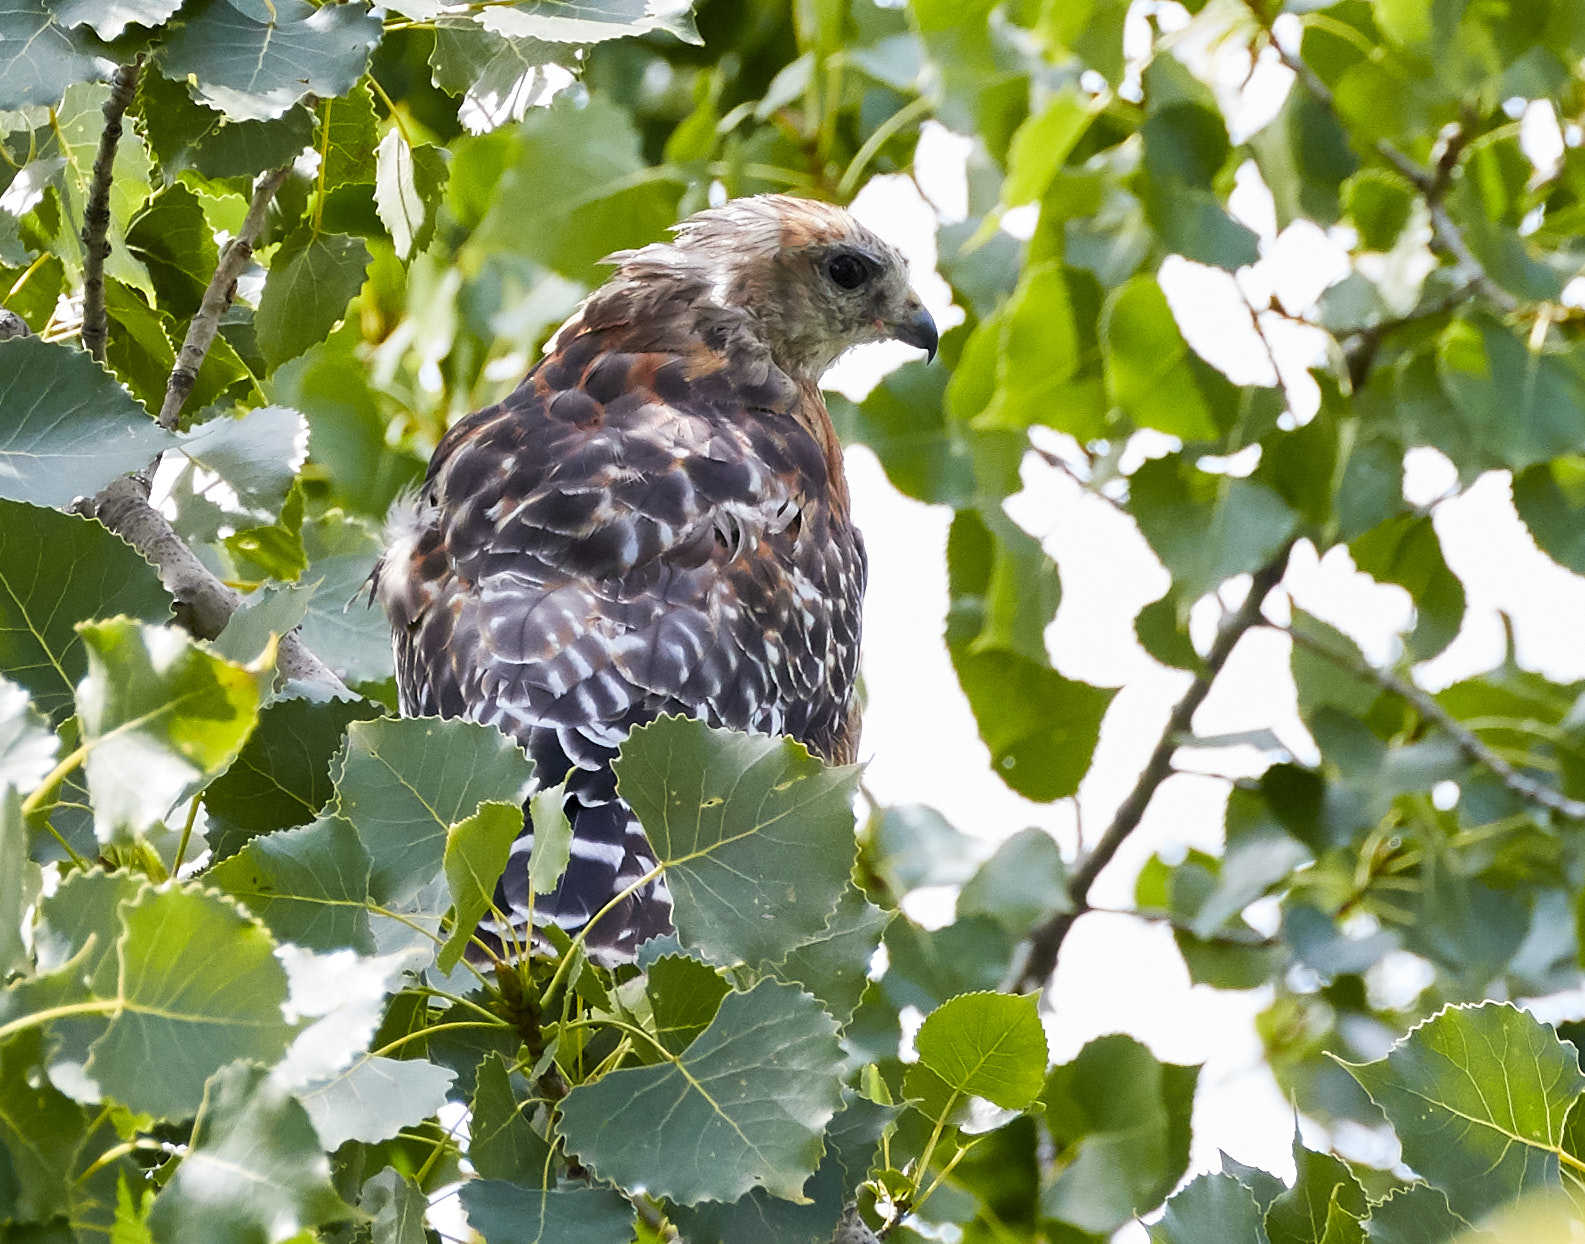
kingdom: Animalia
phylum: Chordata
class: Aves
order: Accipitriformes
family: Accipitridae
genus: Buteo
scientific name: Buteo lineatus
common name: Red-shouldered hawk
